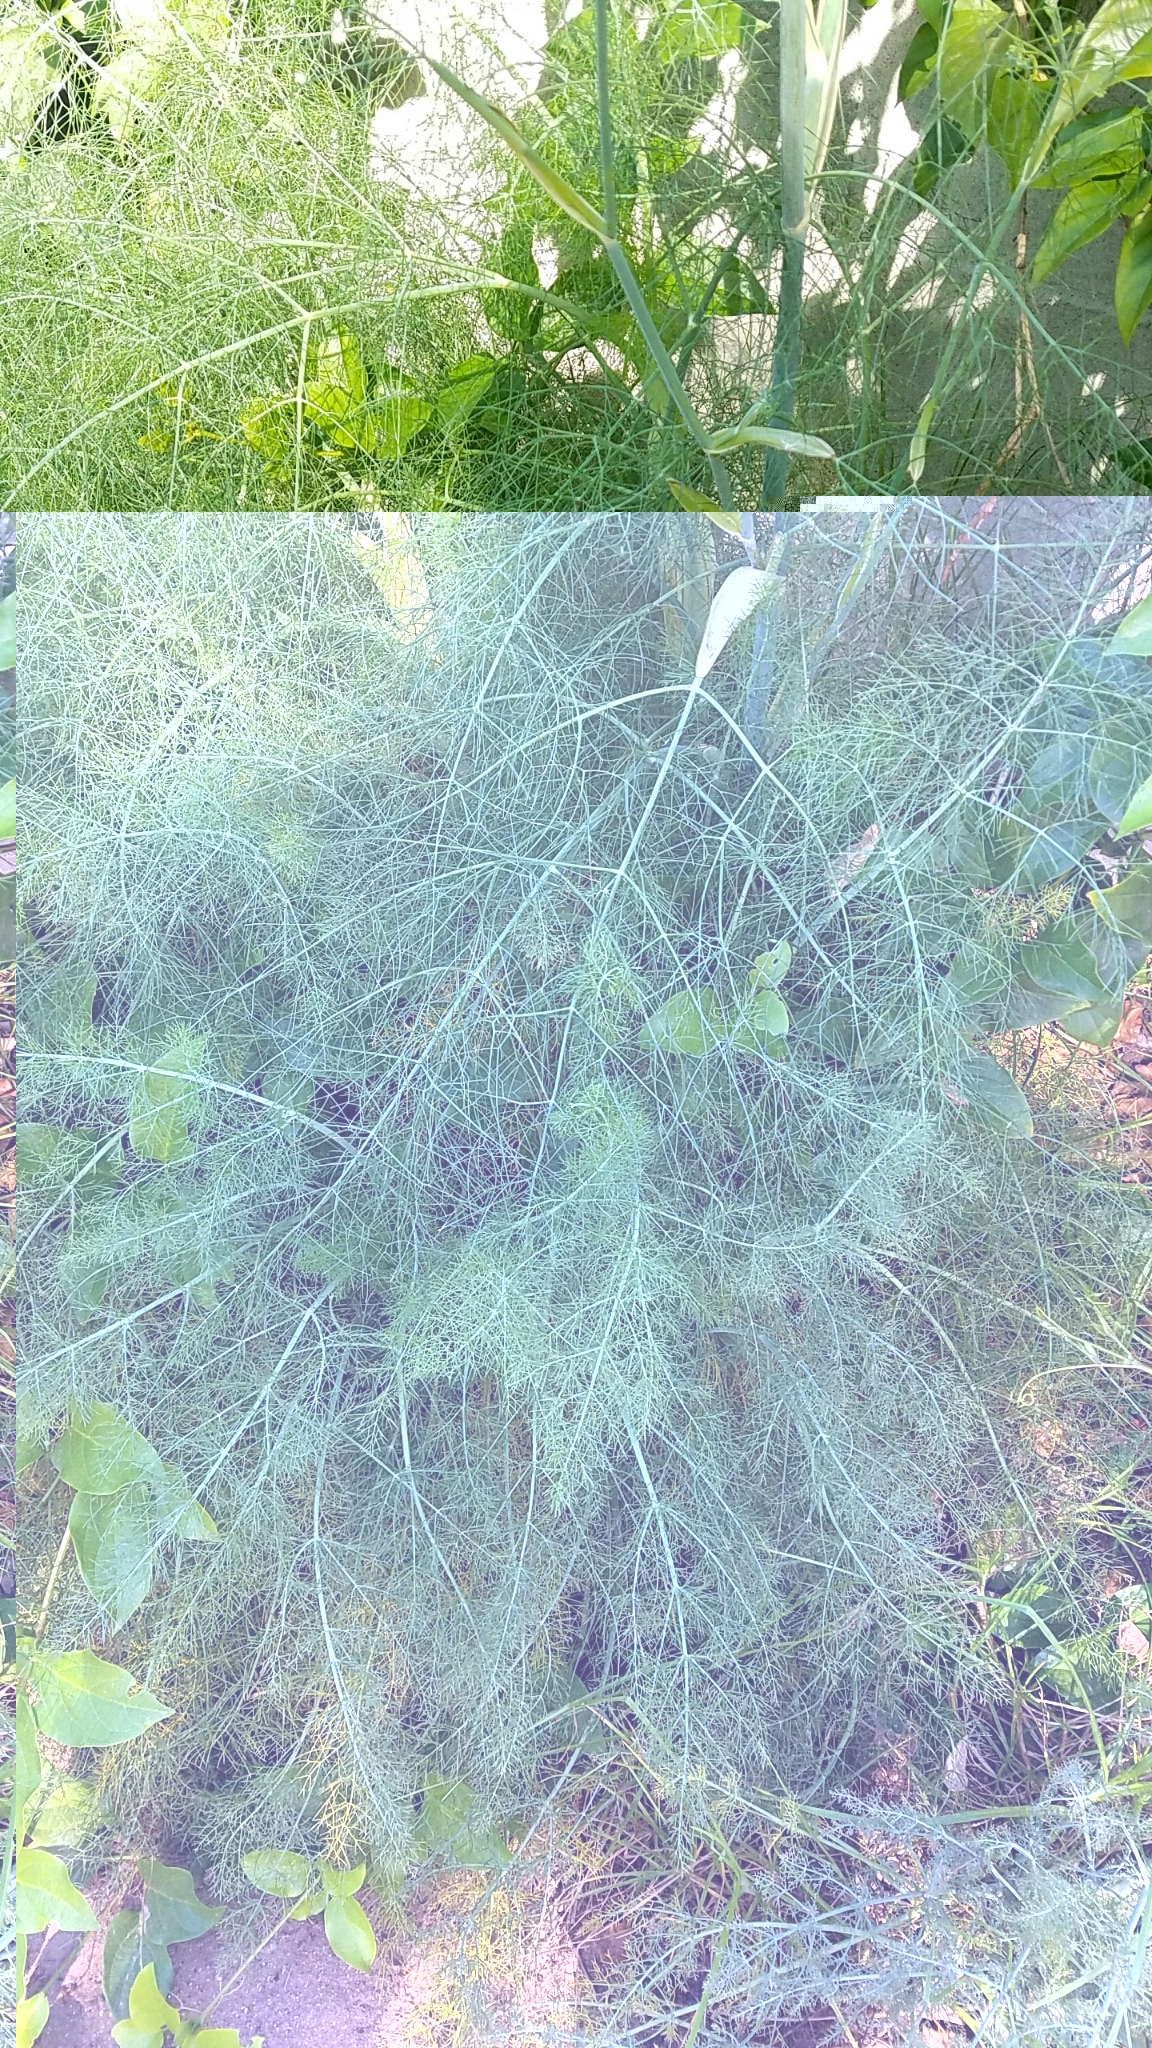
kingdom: Plantae
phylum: Tracheophyta
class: Magnoliopsida
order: Apiales
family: Apiaceae
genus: Foeniculum
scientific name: Foeniculum vulgare
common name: Fennel
